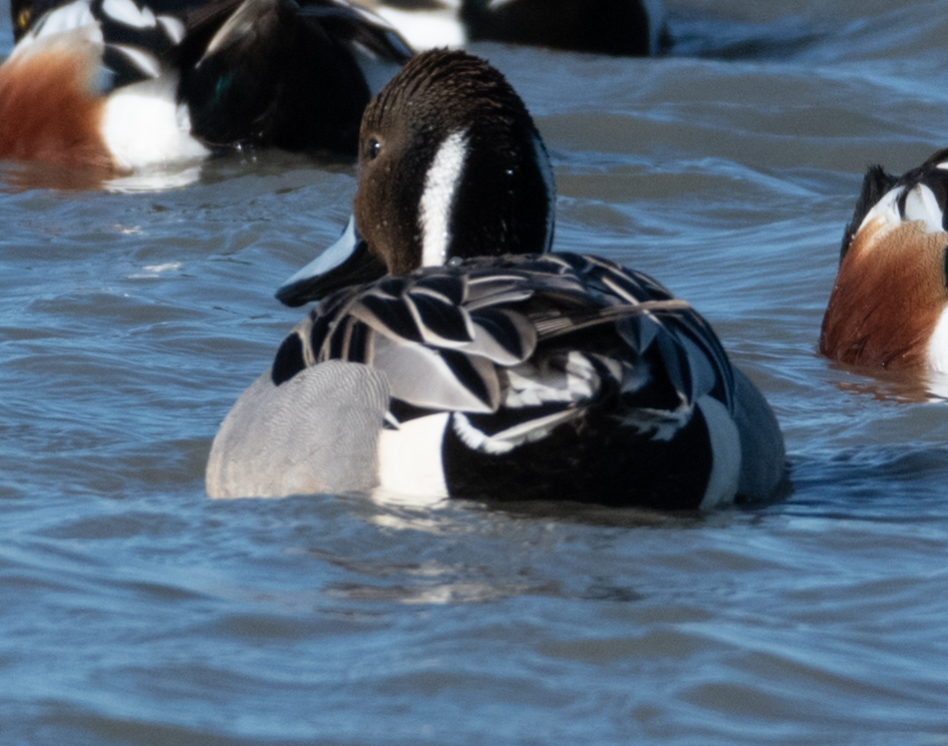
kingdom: Animalia
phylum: Chordata
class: Aves
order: Anseriformes
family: Anatidae
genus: Anas
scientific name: Anas acuta
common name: Northern pintail
